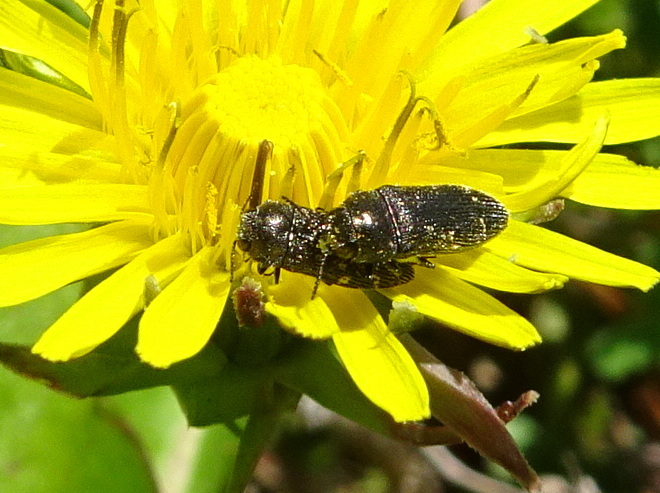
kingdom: Animalia
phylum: Arthropoda
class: Insecta
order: Coleoptera
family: Buprestidae
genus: Acmaeodera
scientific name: Acmaeodera tubulus
